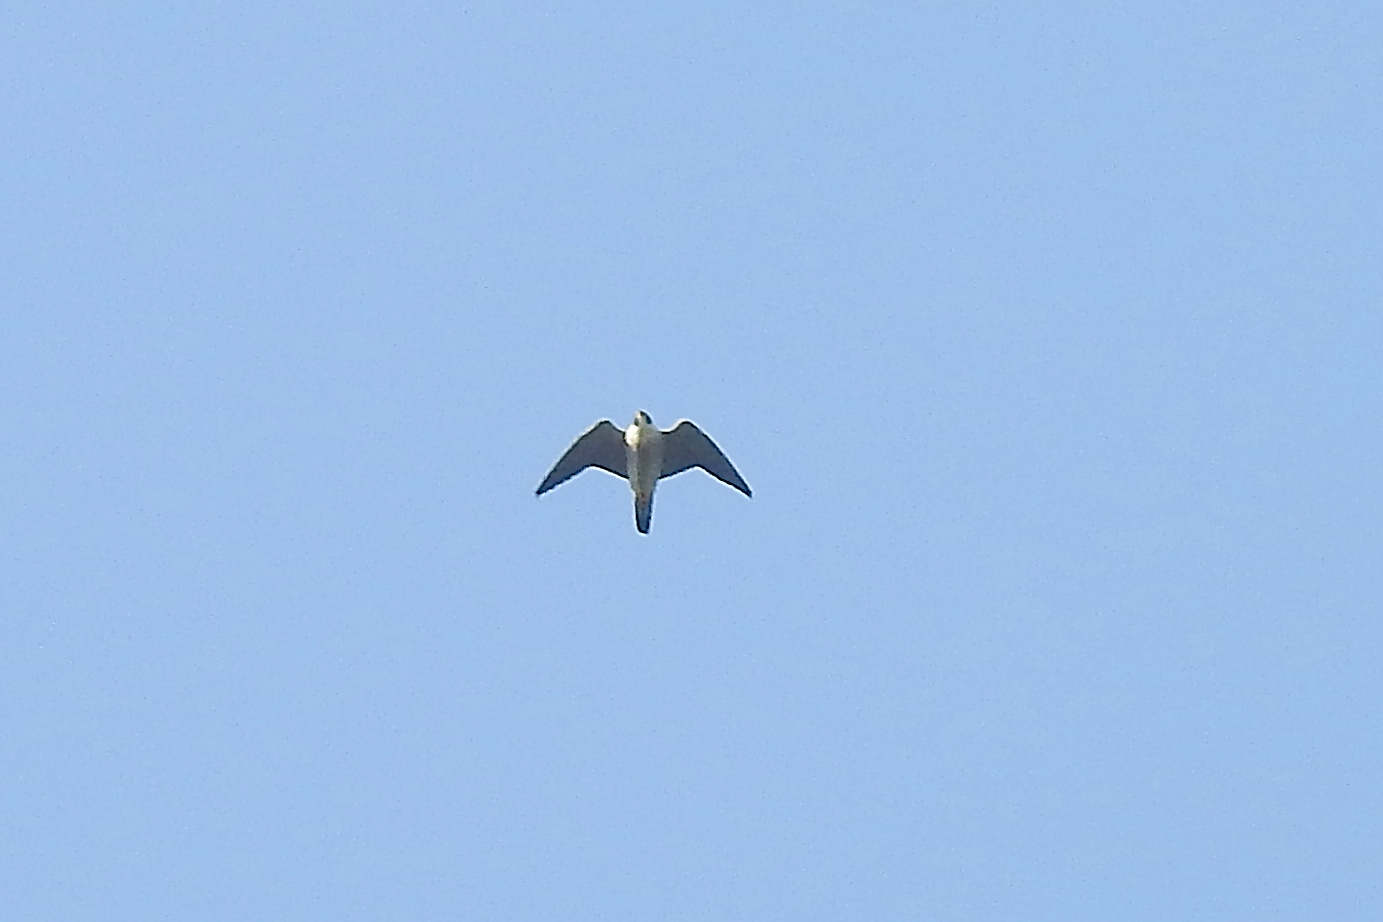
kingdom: Animalia
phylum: Chordata
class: Aves
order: Falconiformes
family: Falconidae
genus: Falco
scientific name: Falco peregrinus
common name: Peregrine falcon
